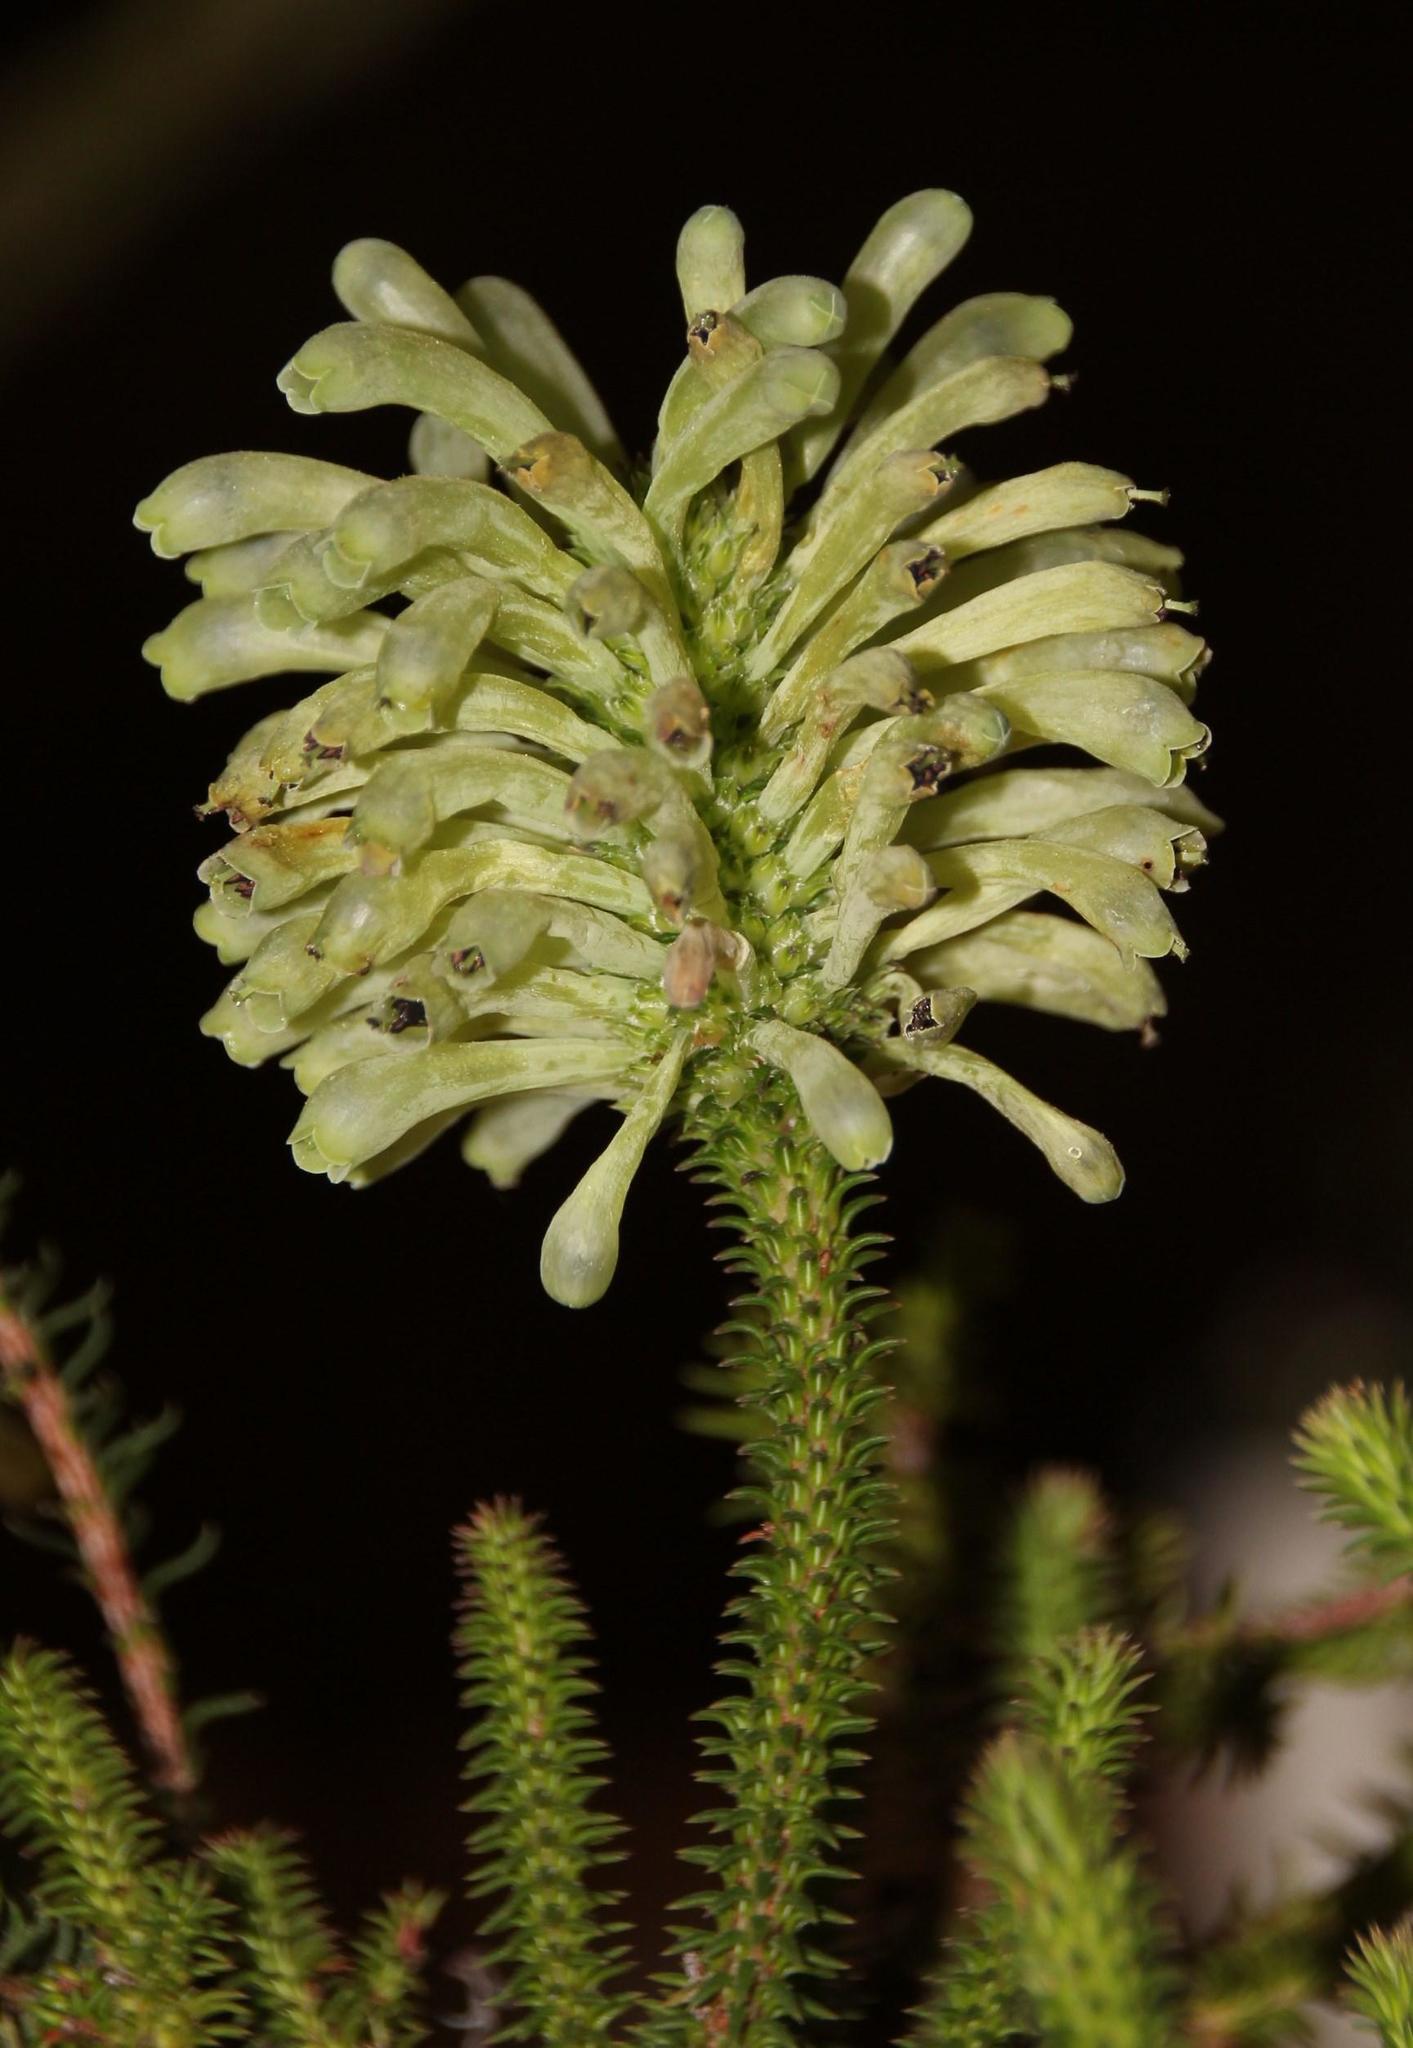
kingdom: Plantae
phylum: Tracheophyta
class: Magnoliopsida
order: Ericales
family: Ericaceae
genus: Erica
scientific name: Erica sessiliflora
